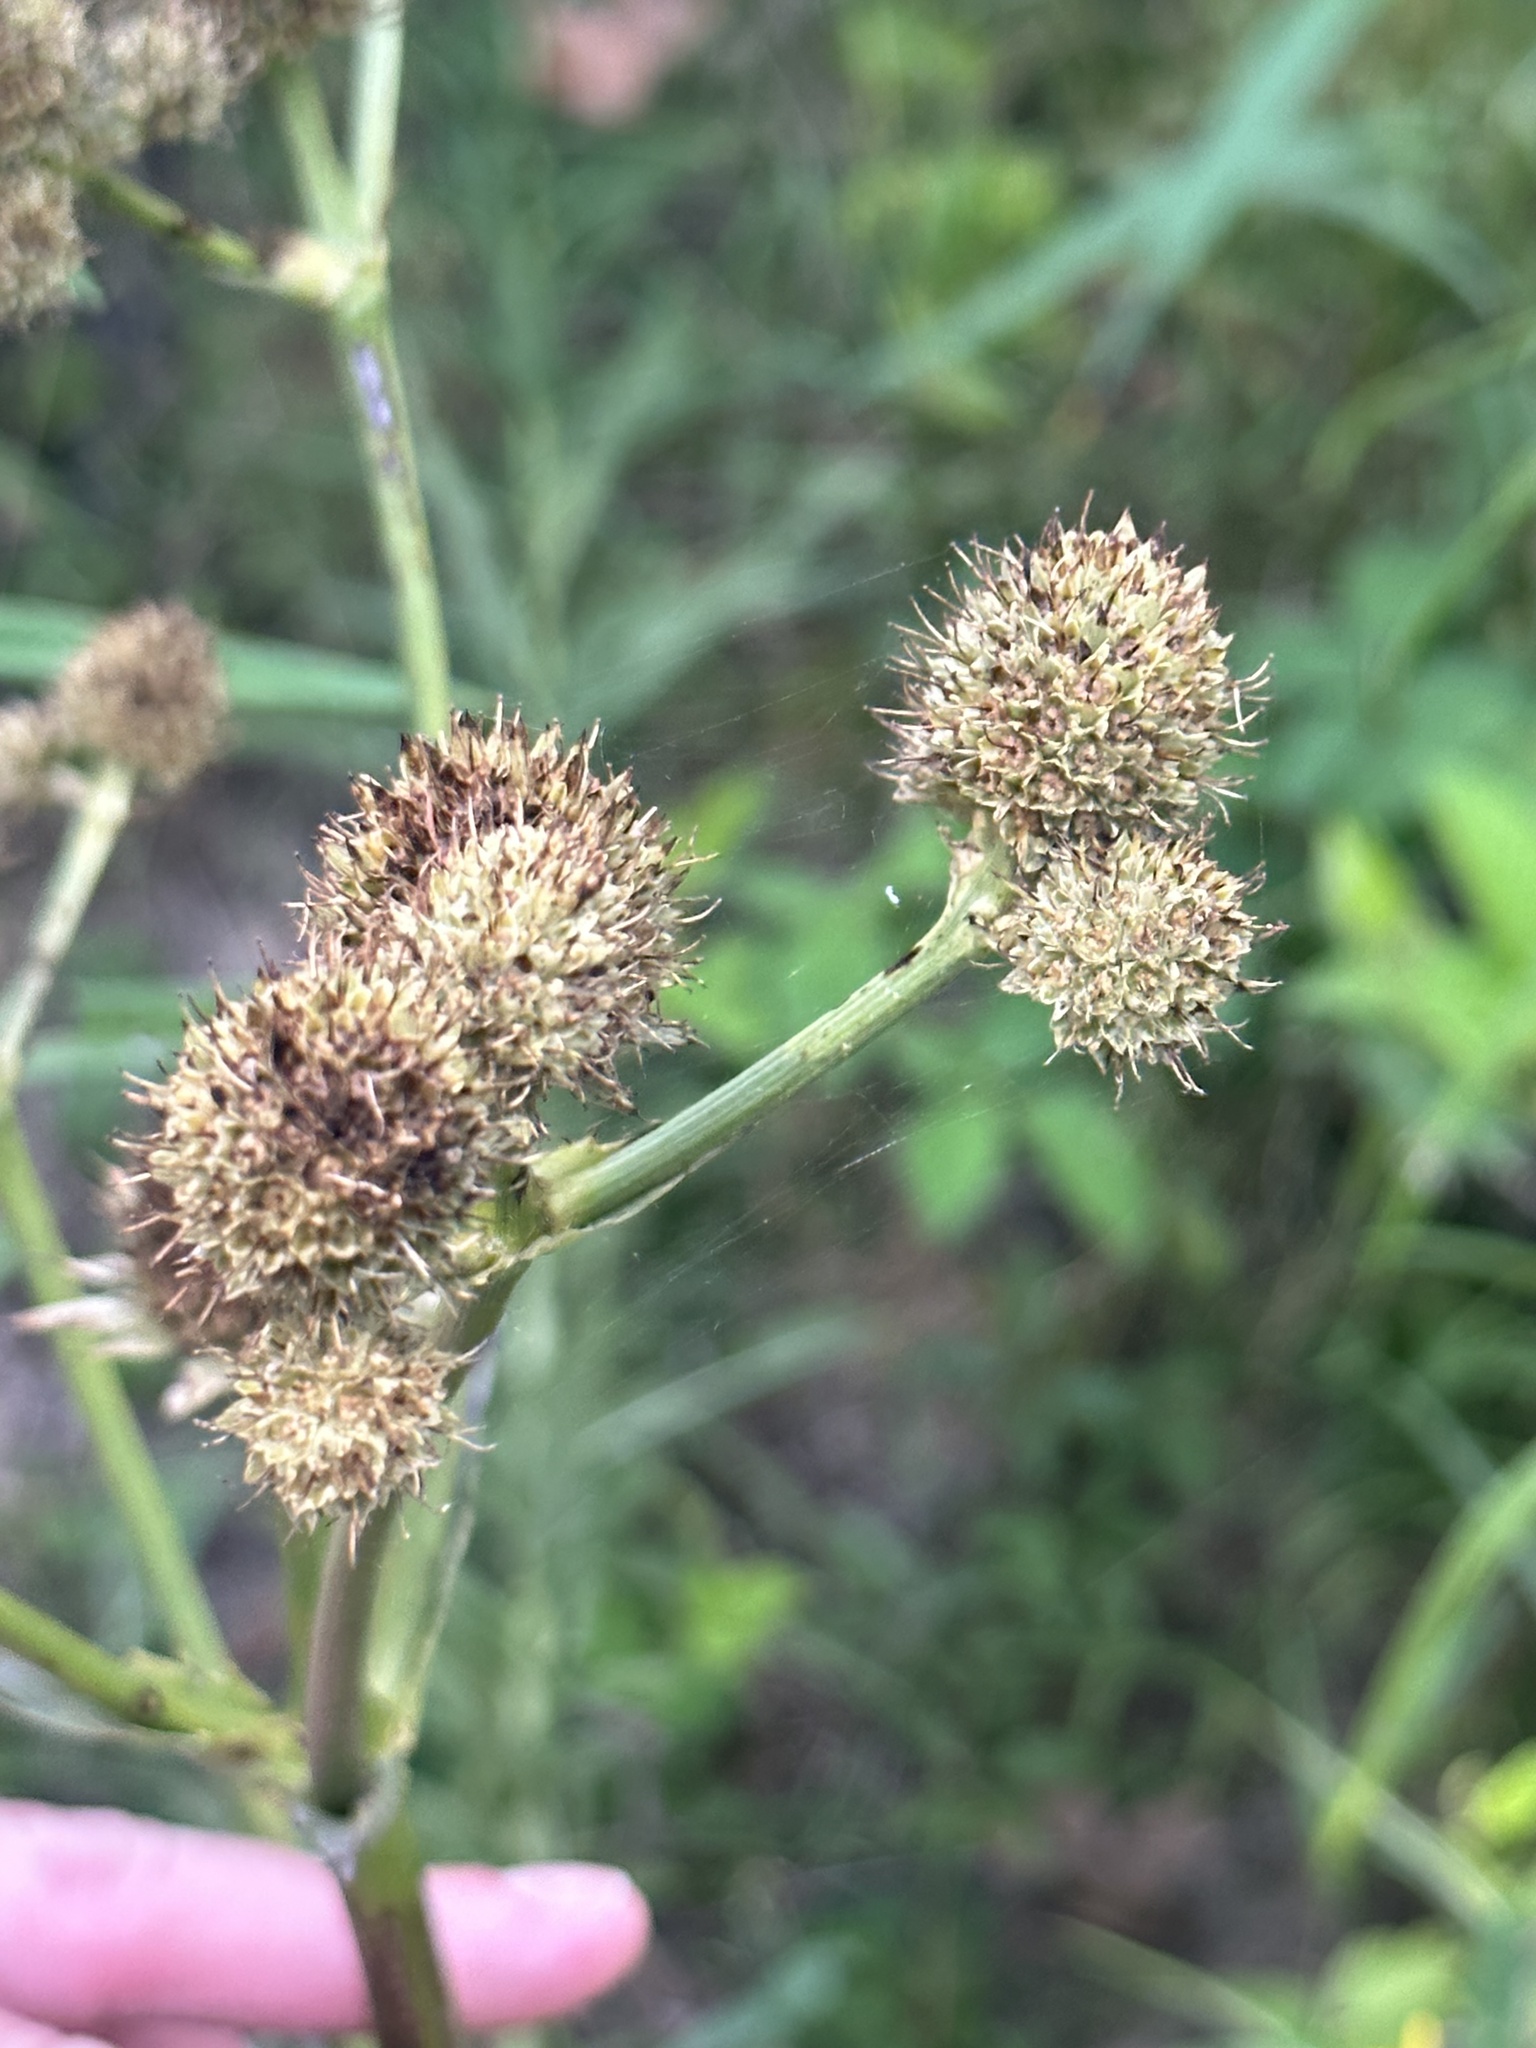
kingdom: Plantae
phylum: Tracheophyta
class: Magnoliopsida
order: Apiales
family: Apiaceae
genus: Eryngium
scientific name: Eryngium yuccifolium
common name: Button eryngo
